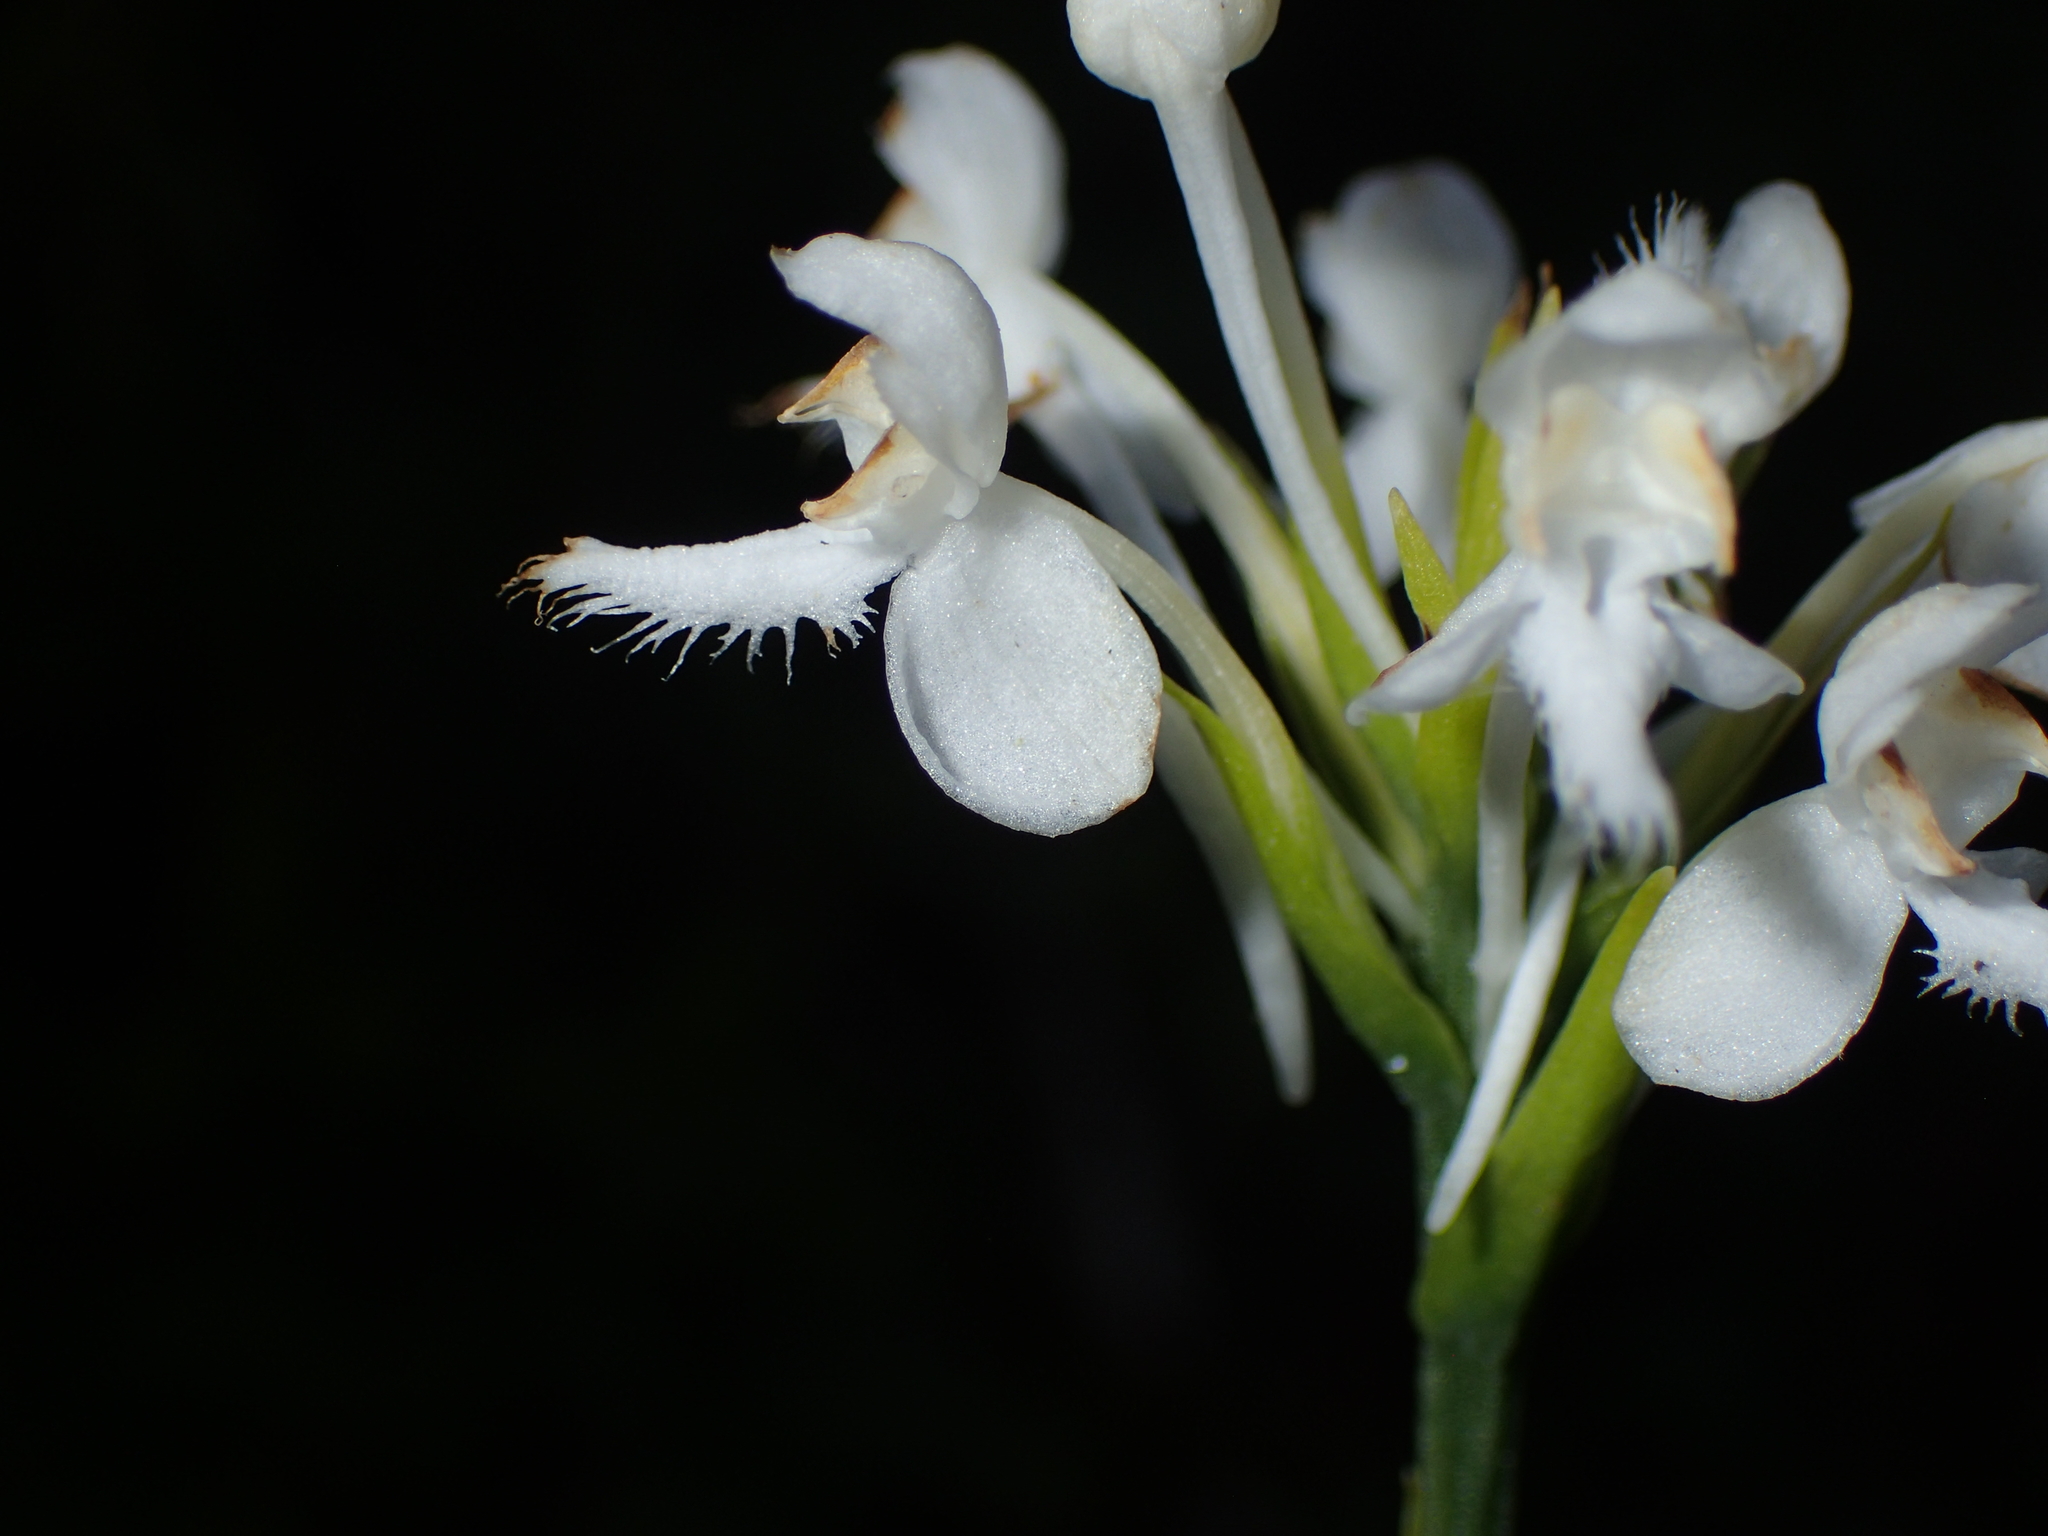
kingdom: Plantae
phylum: Tracheophyta
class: Liliopsida
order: Asparagales
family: Orchidaceae
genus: Platanthera
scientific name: Platanthera blephariglottis
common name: White fringed orchid
